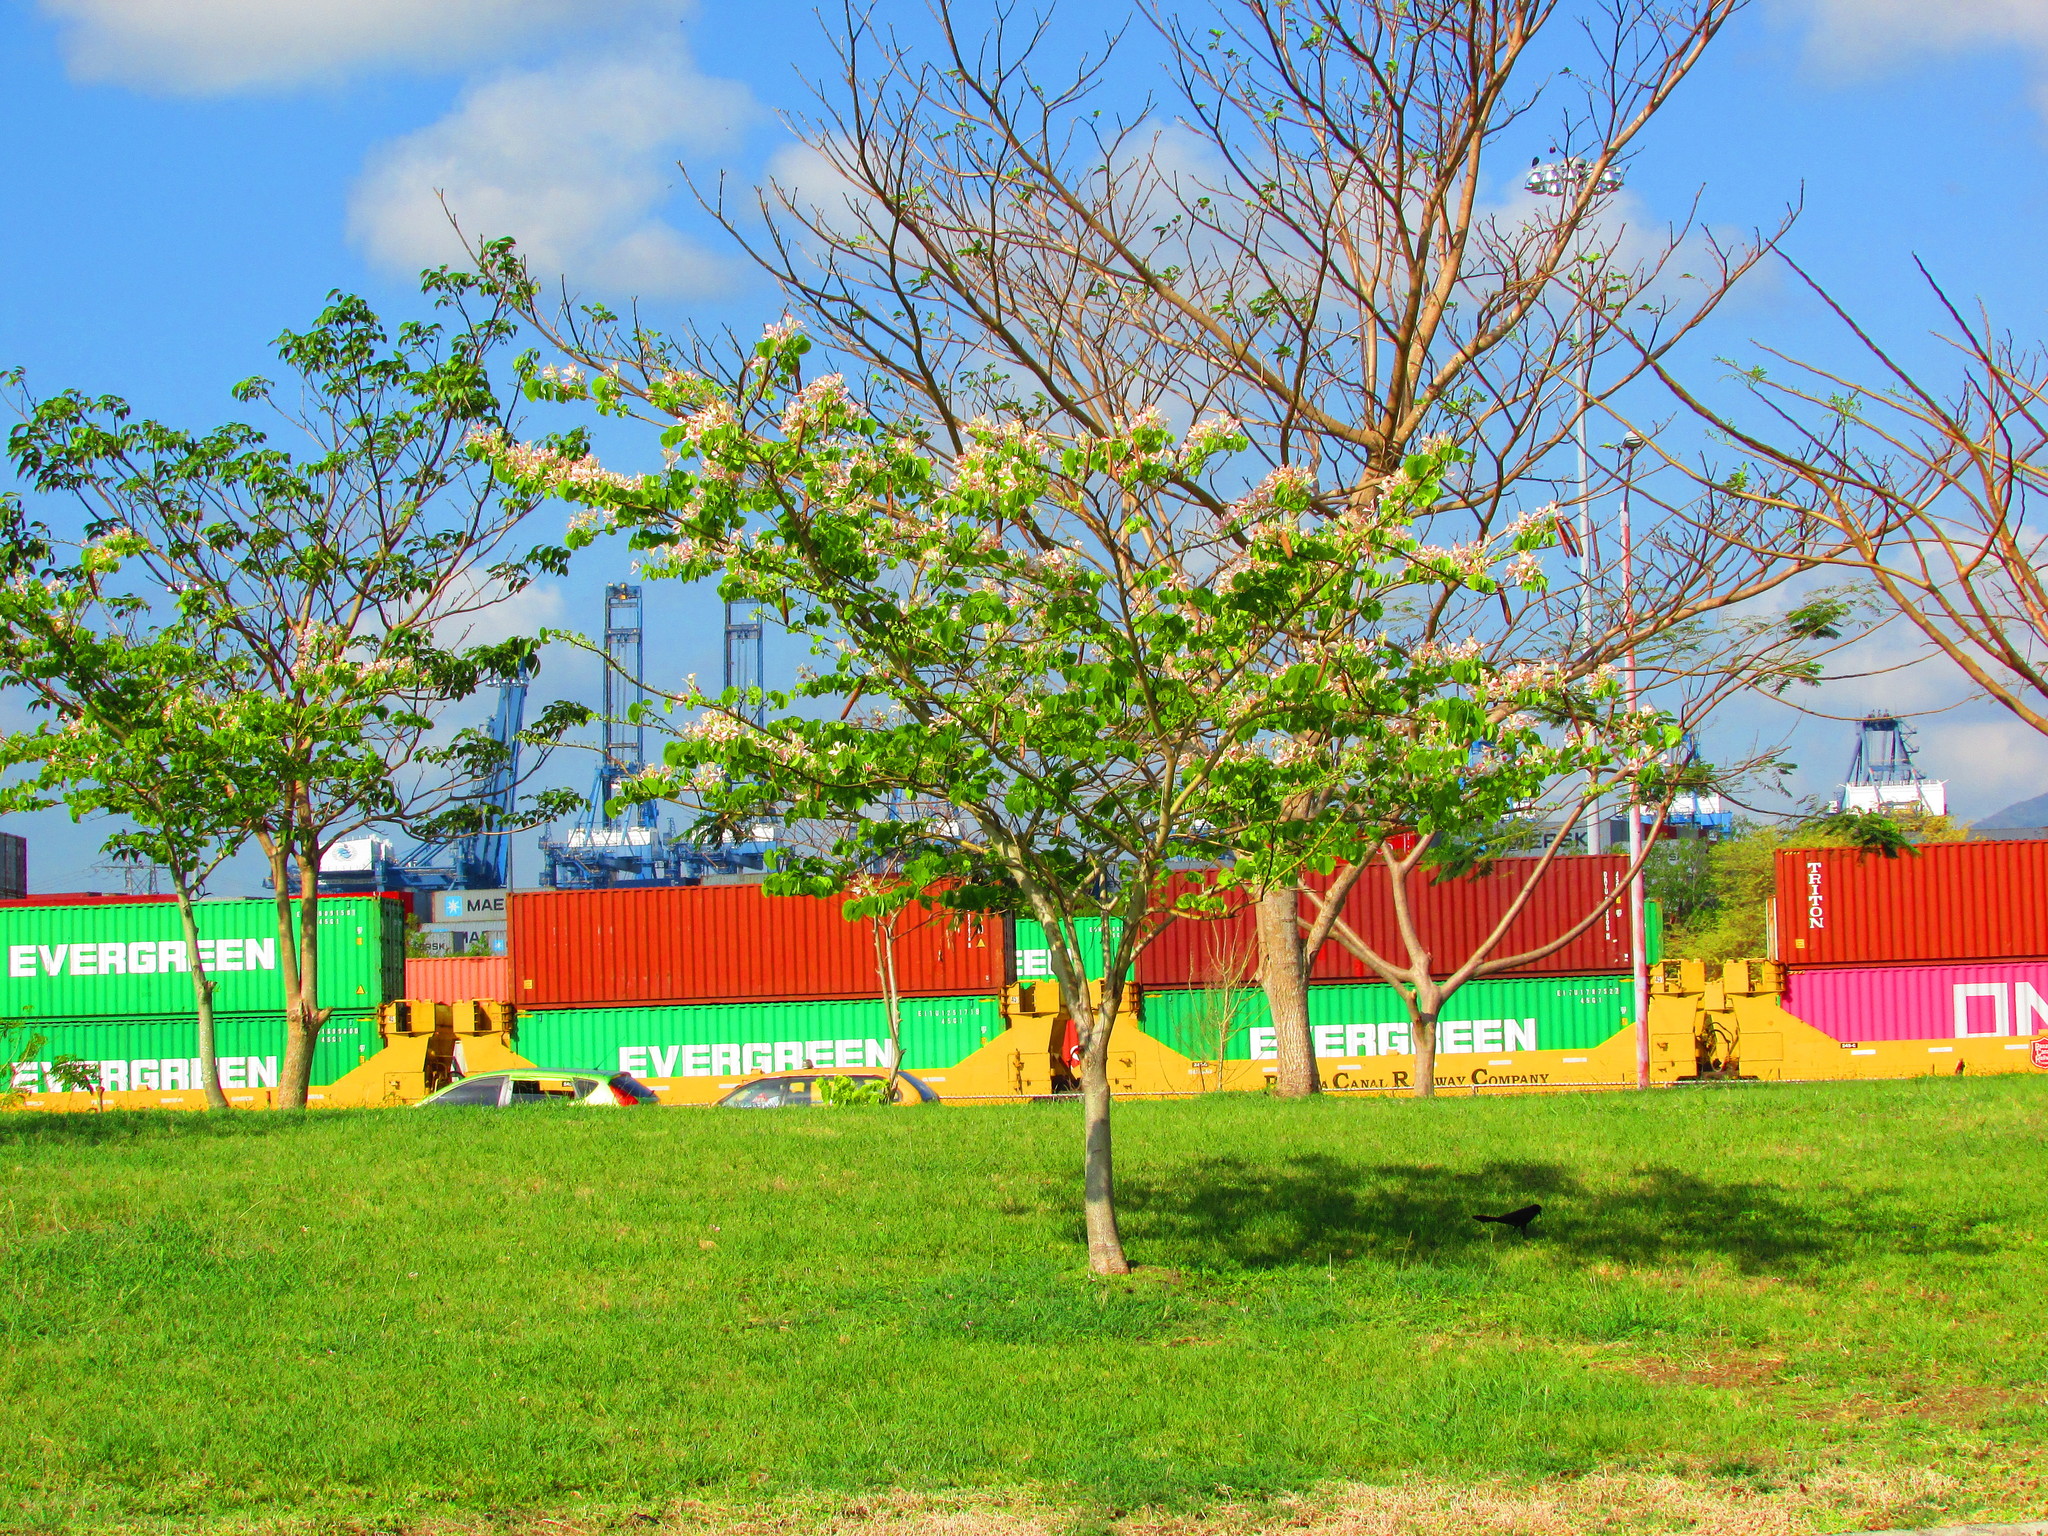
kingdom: Plantae
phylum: Tracheophyta
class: Magnoliopsida
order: Fabales
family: Fabaceae
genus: Bauhinia
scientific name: Bauhinia monandra
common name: Napoleon's plume
